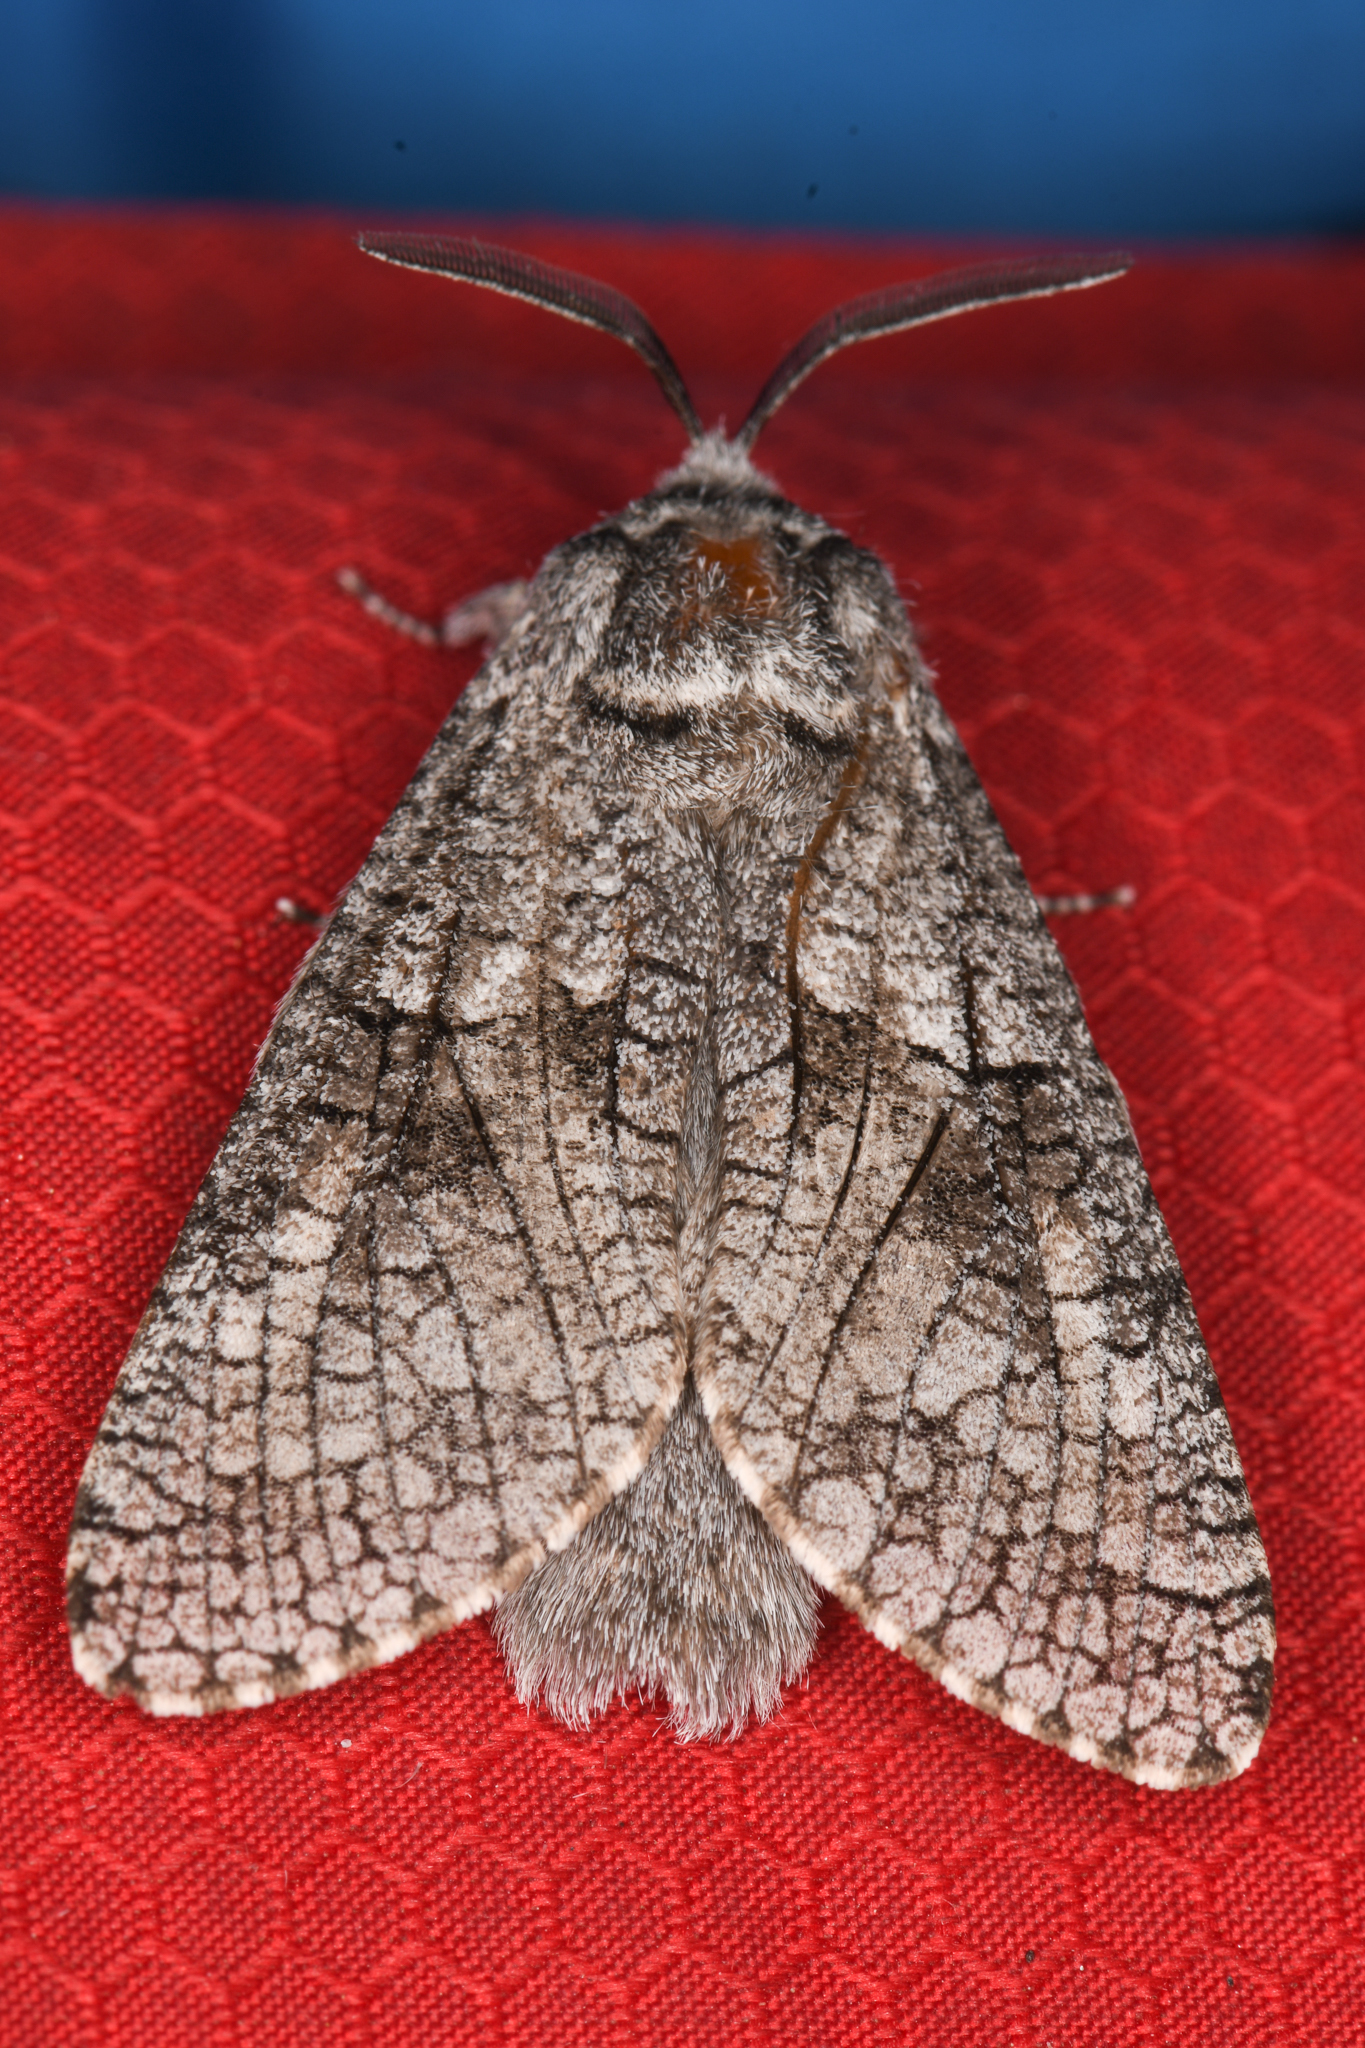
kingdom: Animalia
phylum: Arthropoda
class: Insecta
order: Lepidoptera
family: Cossidae
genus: Acossus
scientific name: Acossus populi
